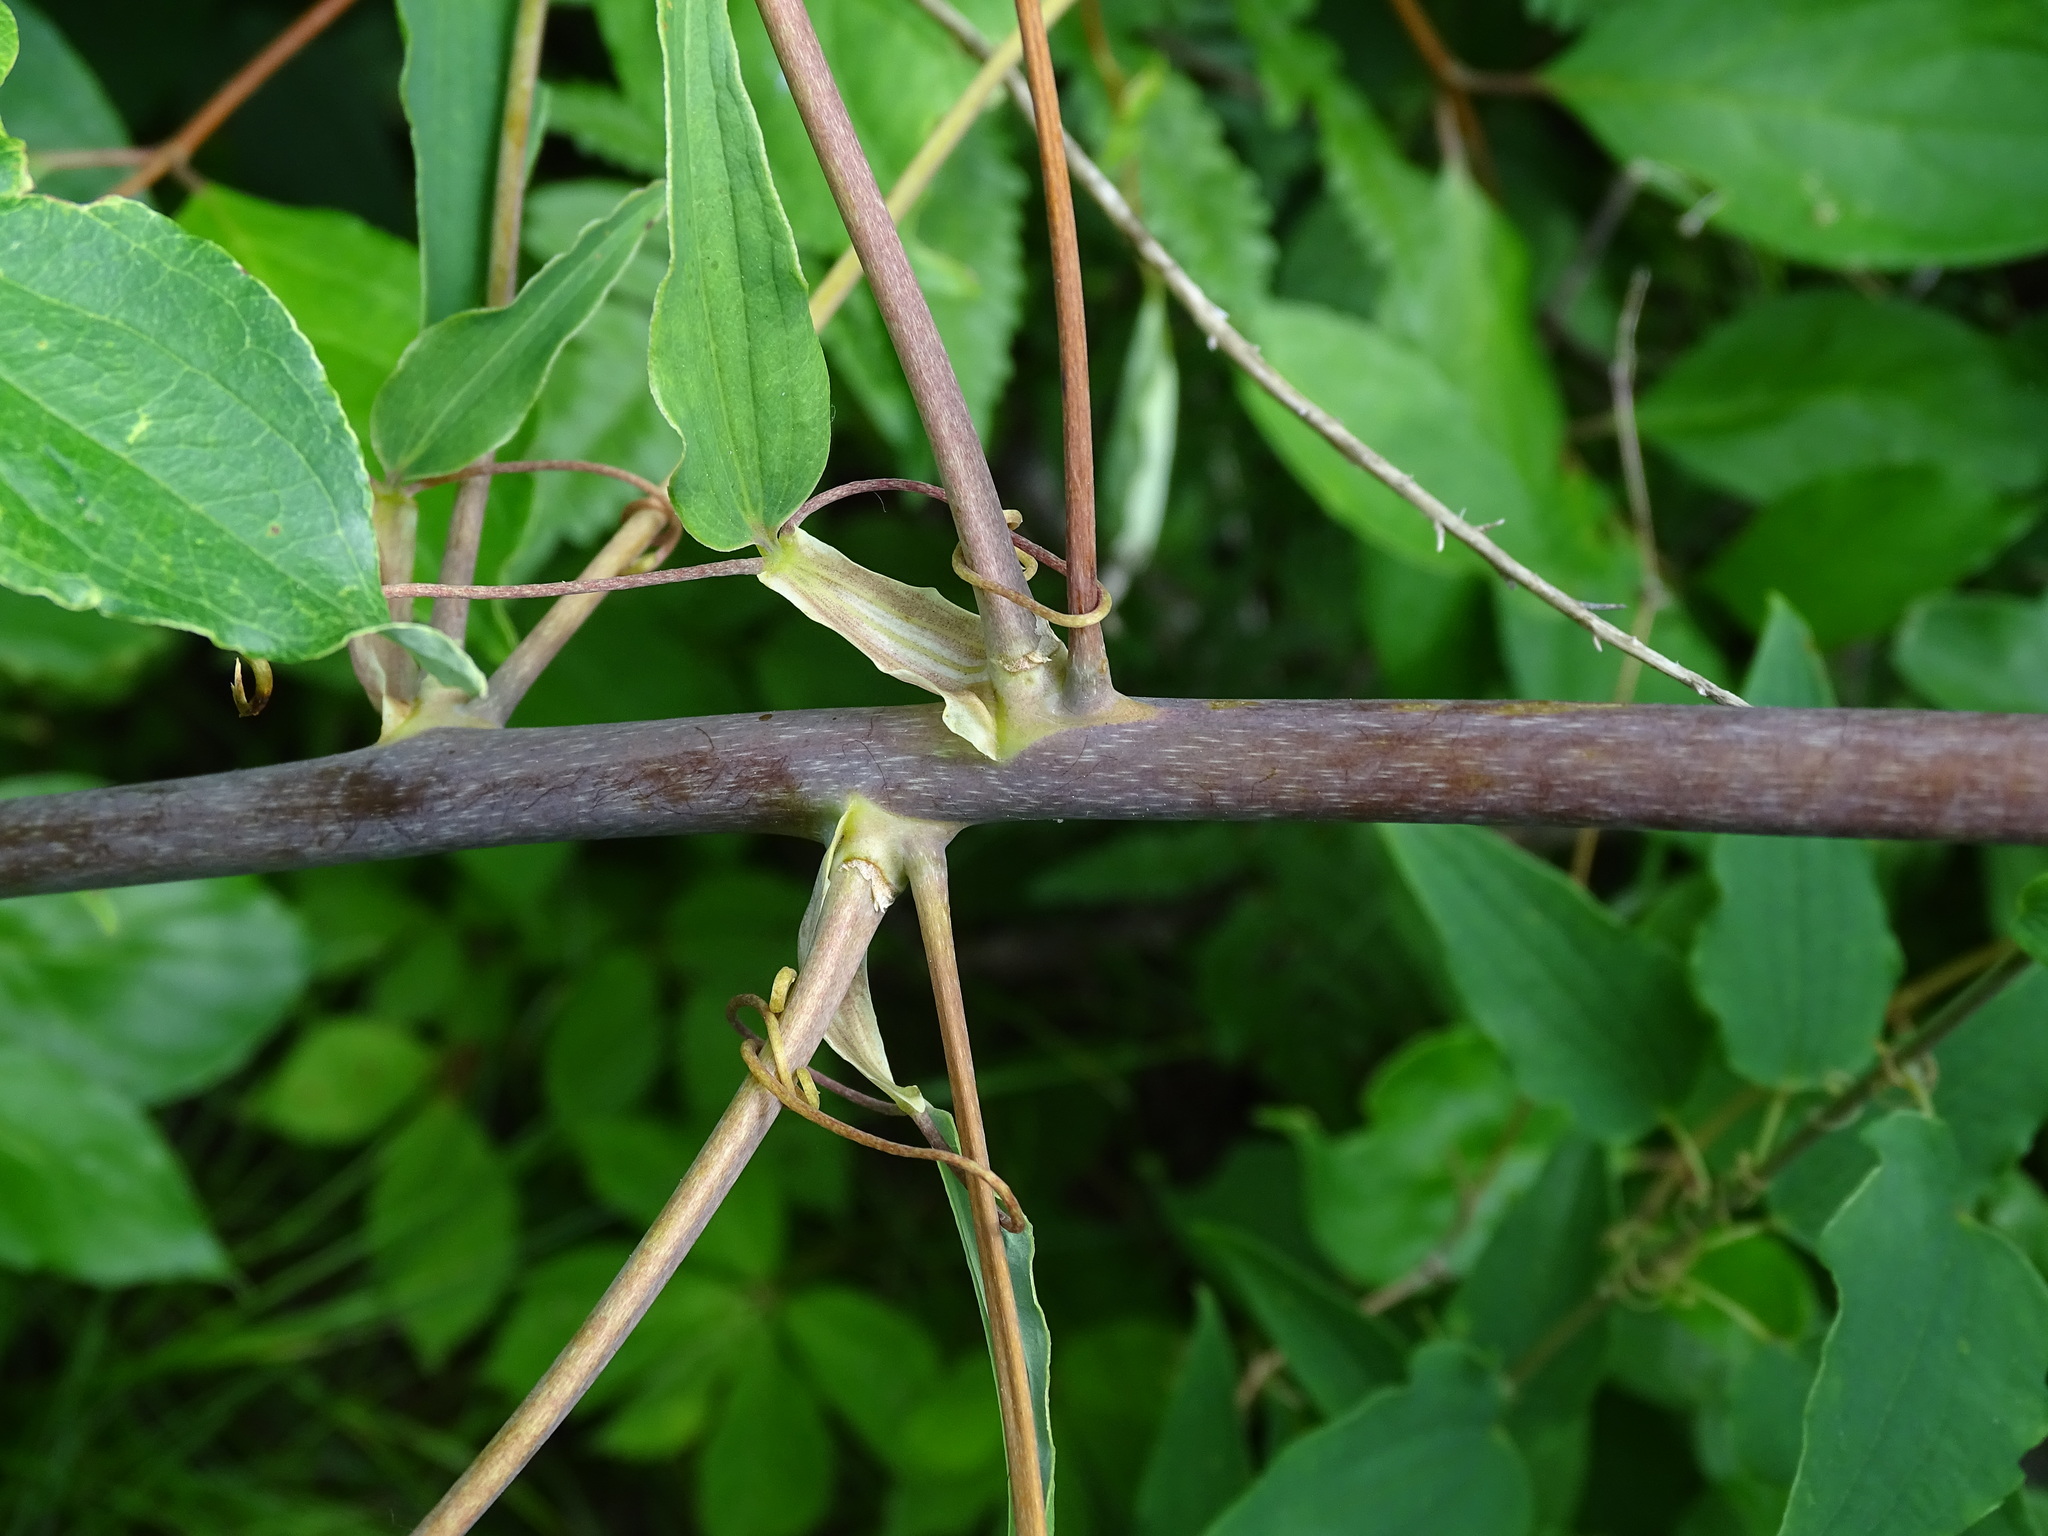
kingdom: Plantae
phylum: Tracheophyta
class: Liliopsida
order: Liliales
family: Smilacaceae
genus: Smilax
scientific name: Smilax herbacea
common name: Jacob's-ladder
